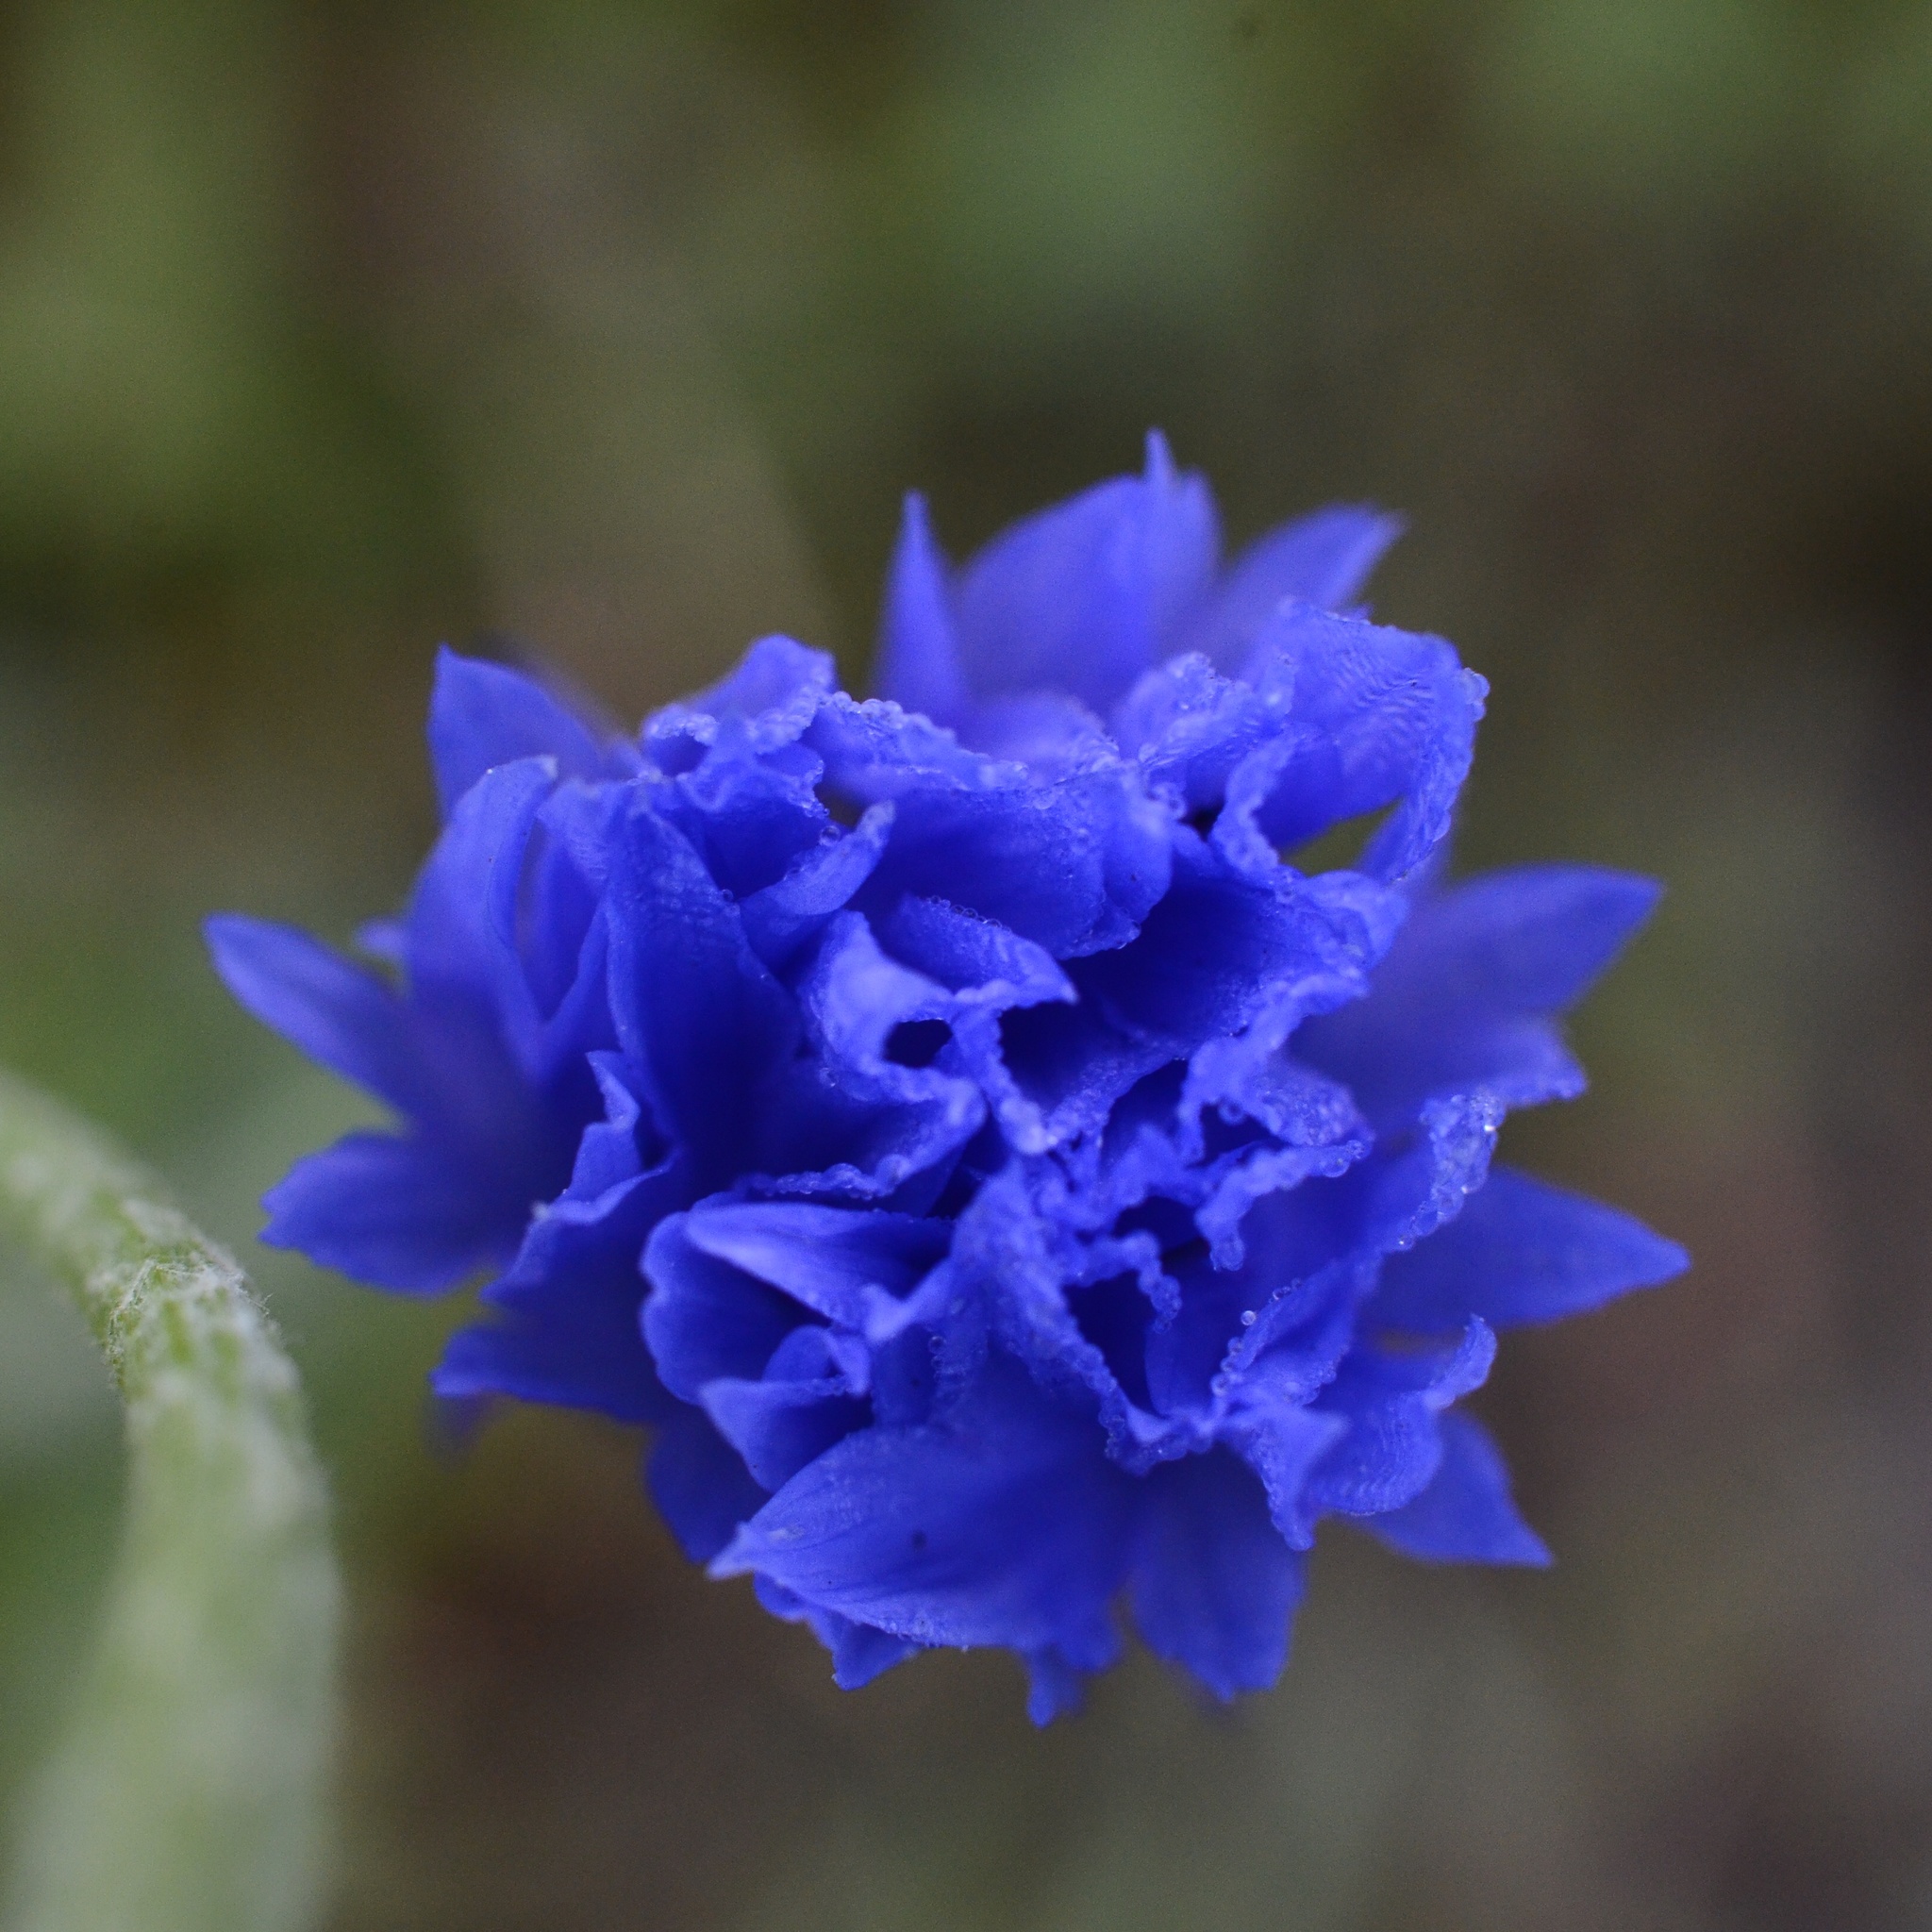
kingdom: Plantae
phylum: Tracheophyta
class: Magnoliopsida
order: Asterales
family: Asteraceae
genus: Centaurea
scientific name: Centaurea cyanus
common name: Cornflower
